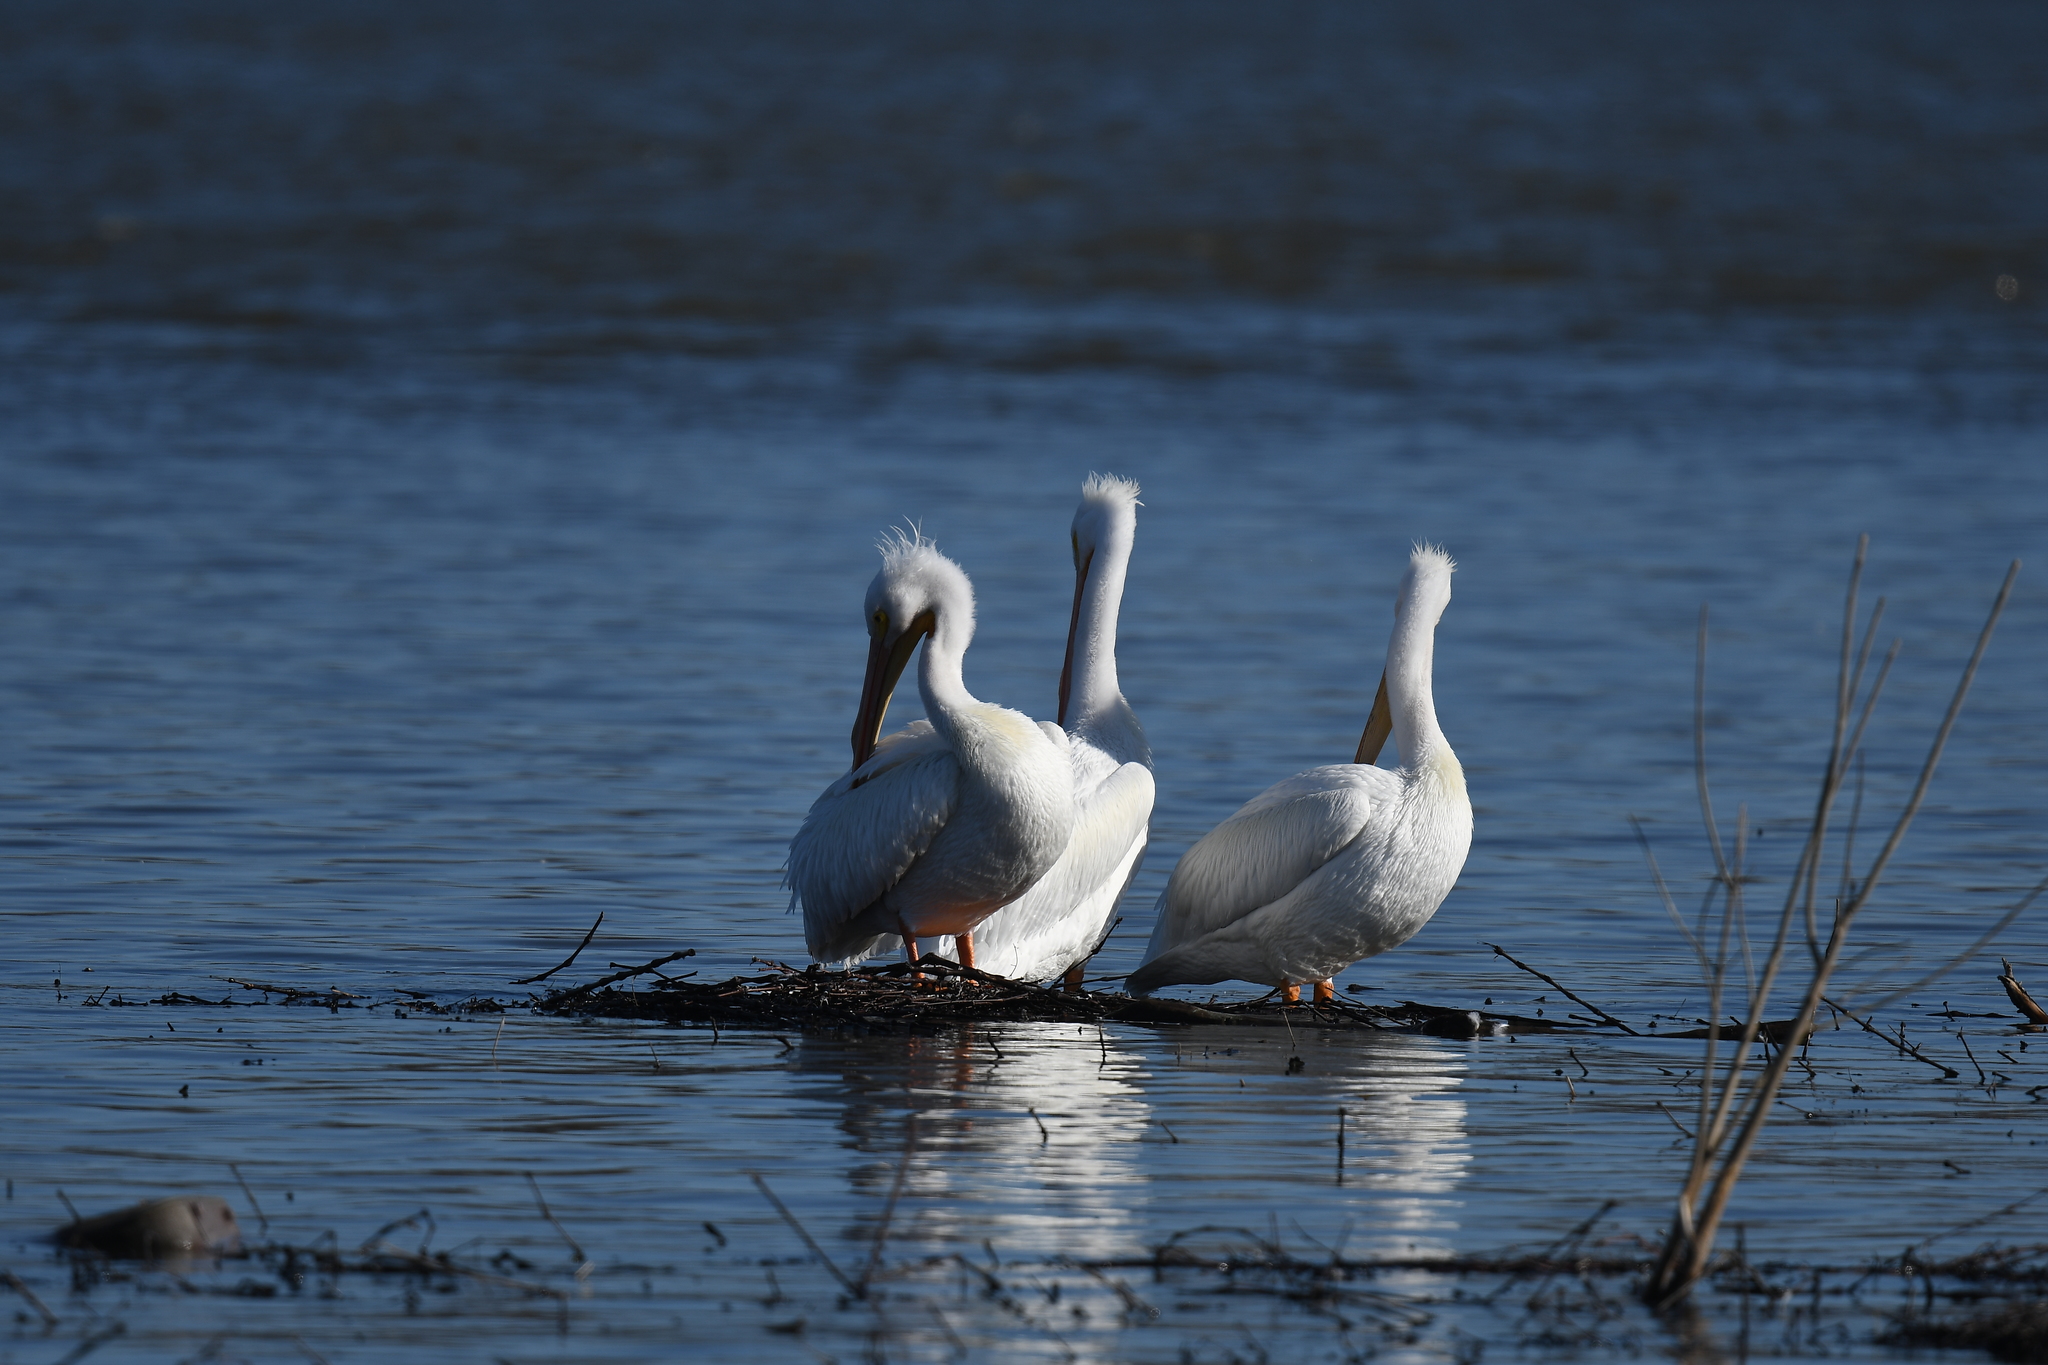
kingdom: Animalia
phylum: Chordata
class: Aves
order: Pelecaniformes
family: Pelecanidae
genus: Pelecanus
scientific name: Pelecanus erythrorhynchos
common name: American white pelican
